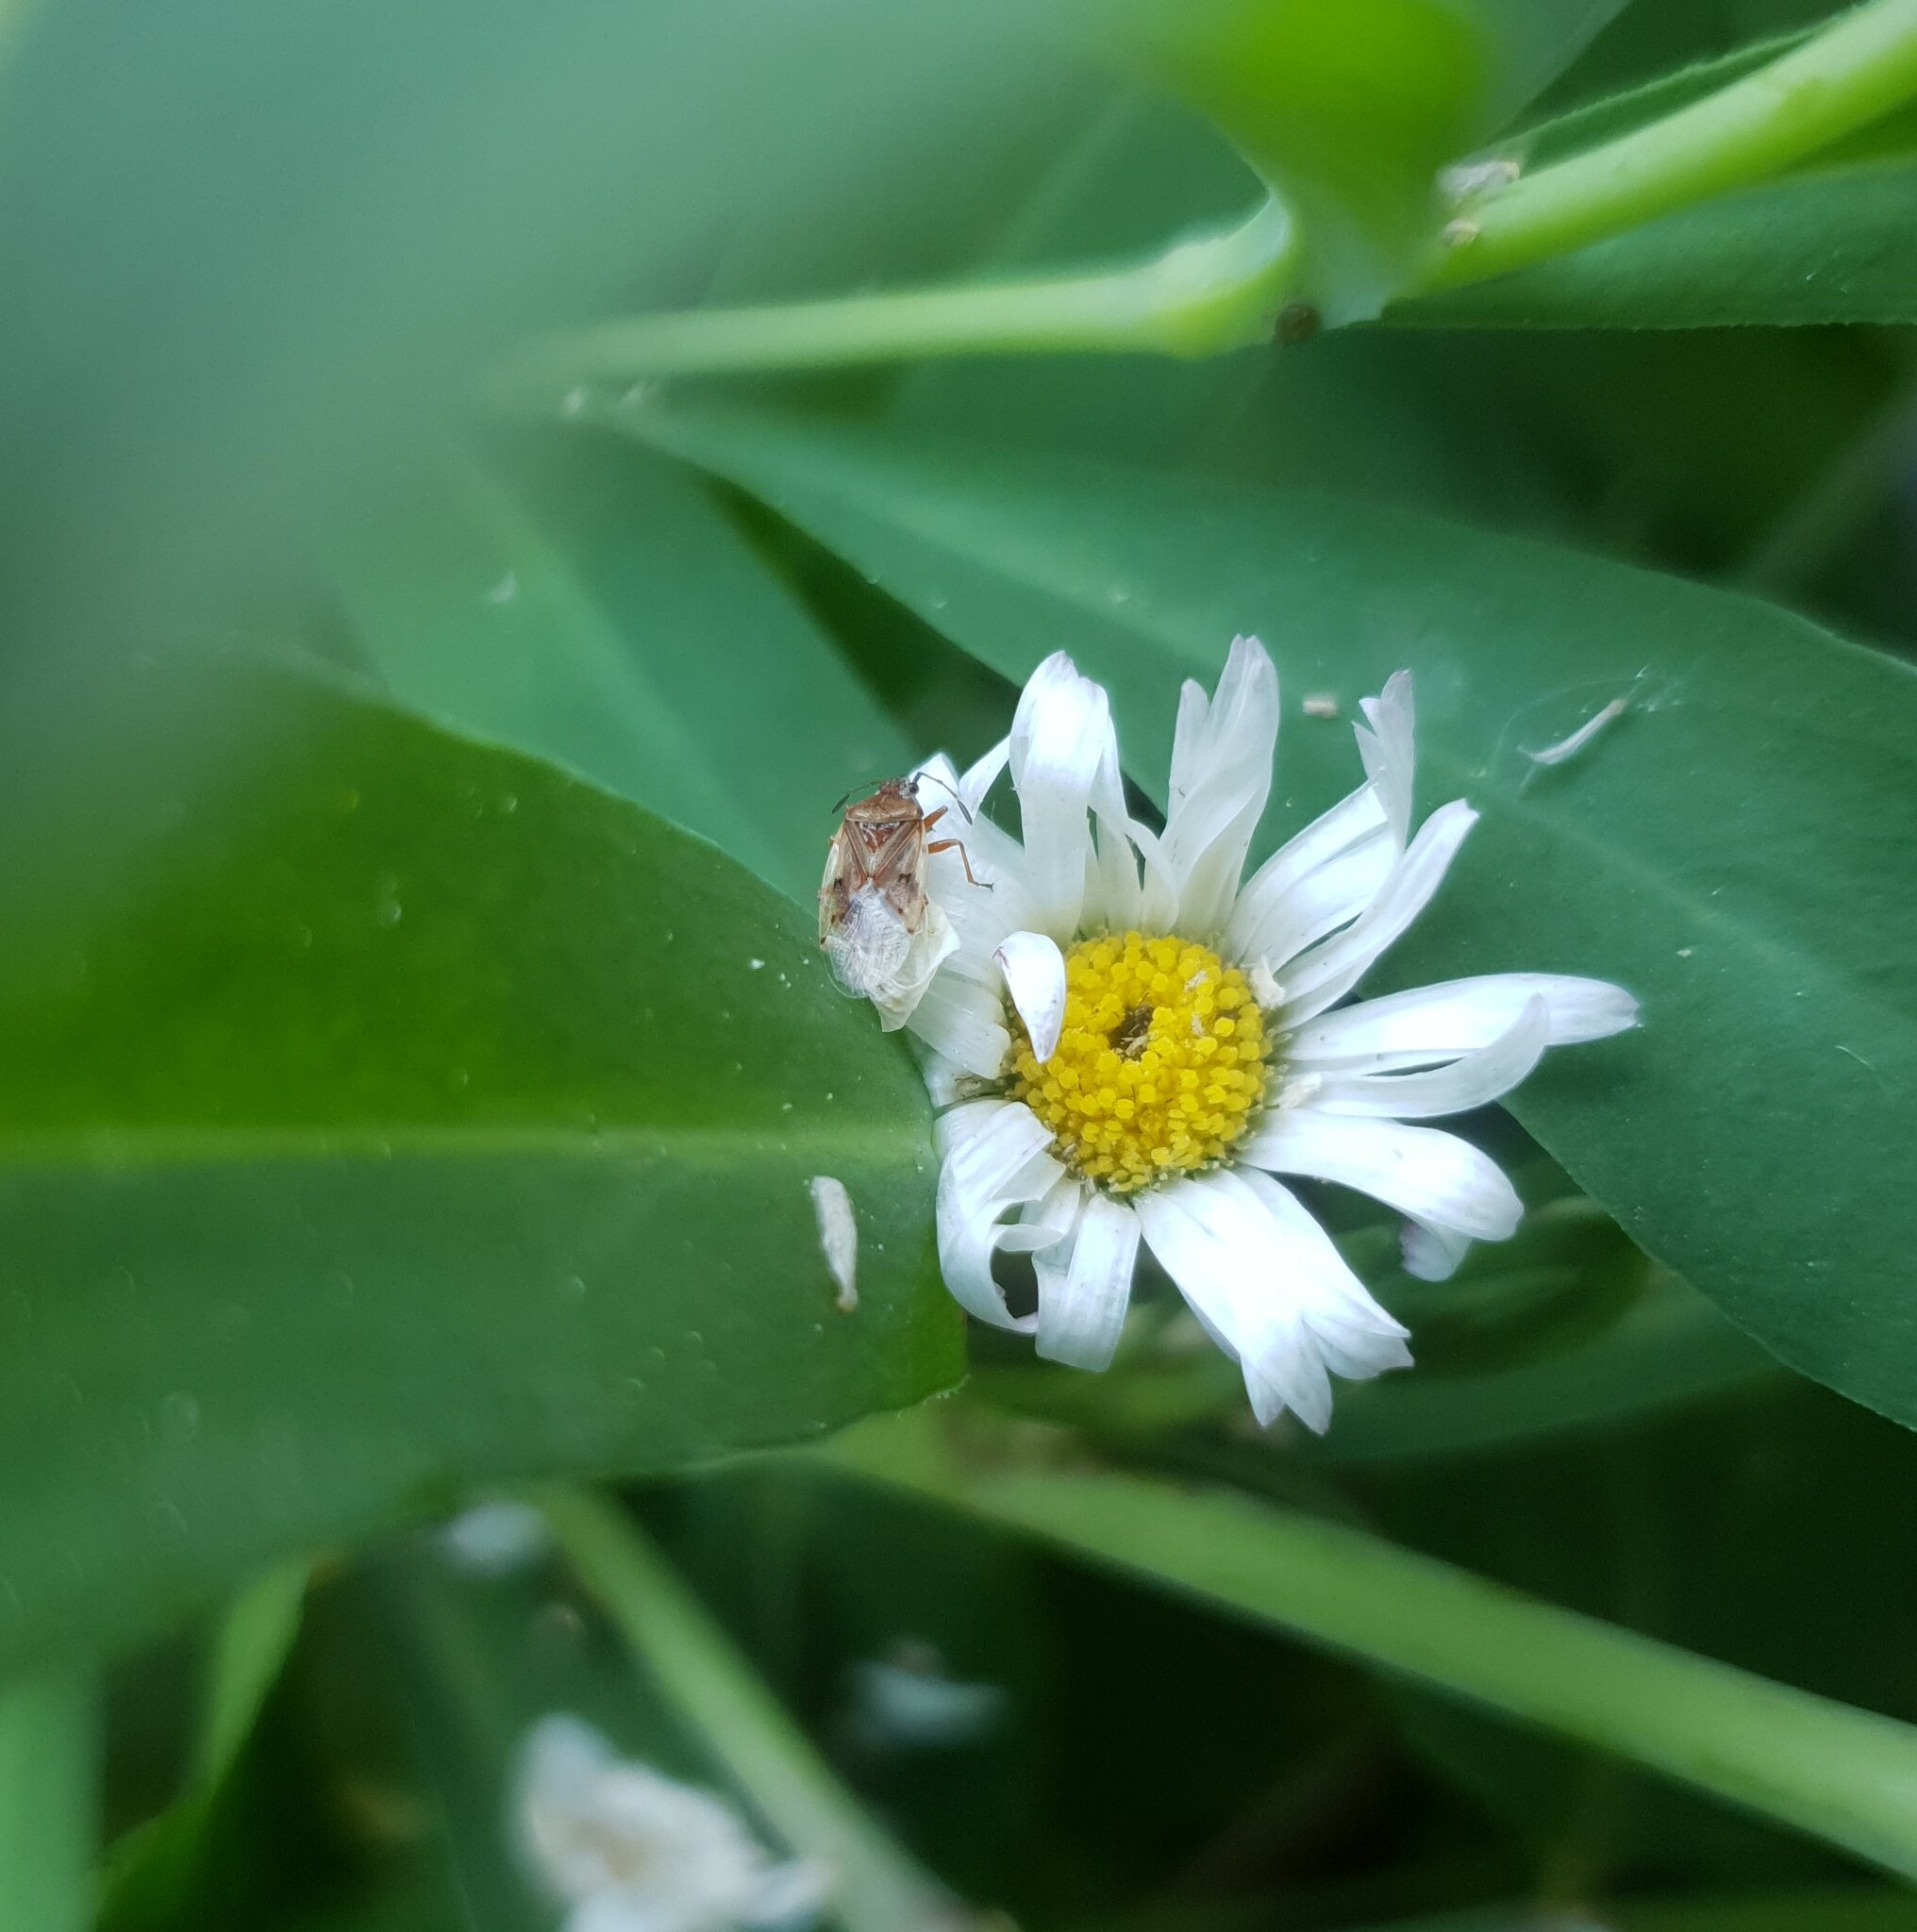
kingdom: Animalia
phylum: Arthropoda
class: Insecta
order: Hemiptera
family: Lygaeidae
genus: Kleidocerys
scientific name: Kleidocerys resedae
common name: Birch catkin bug
